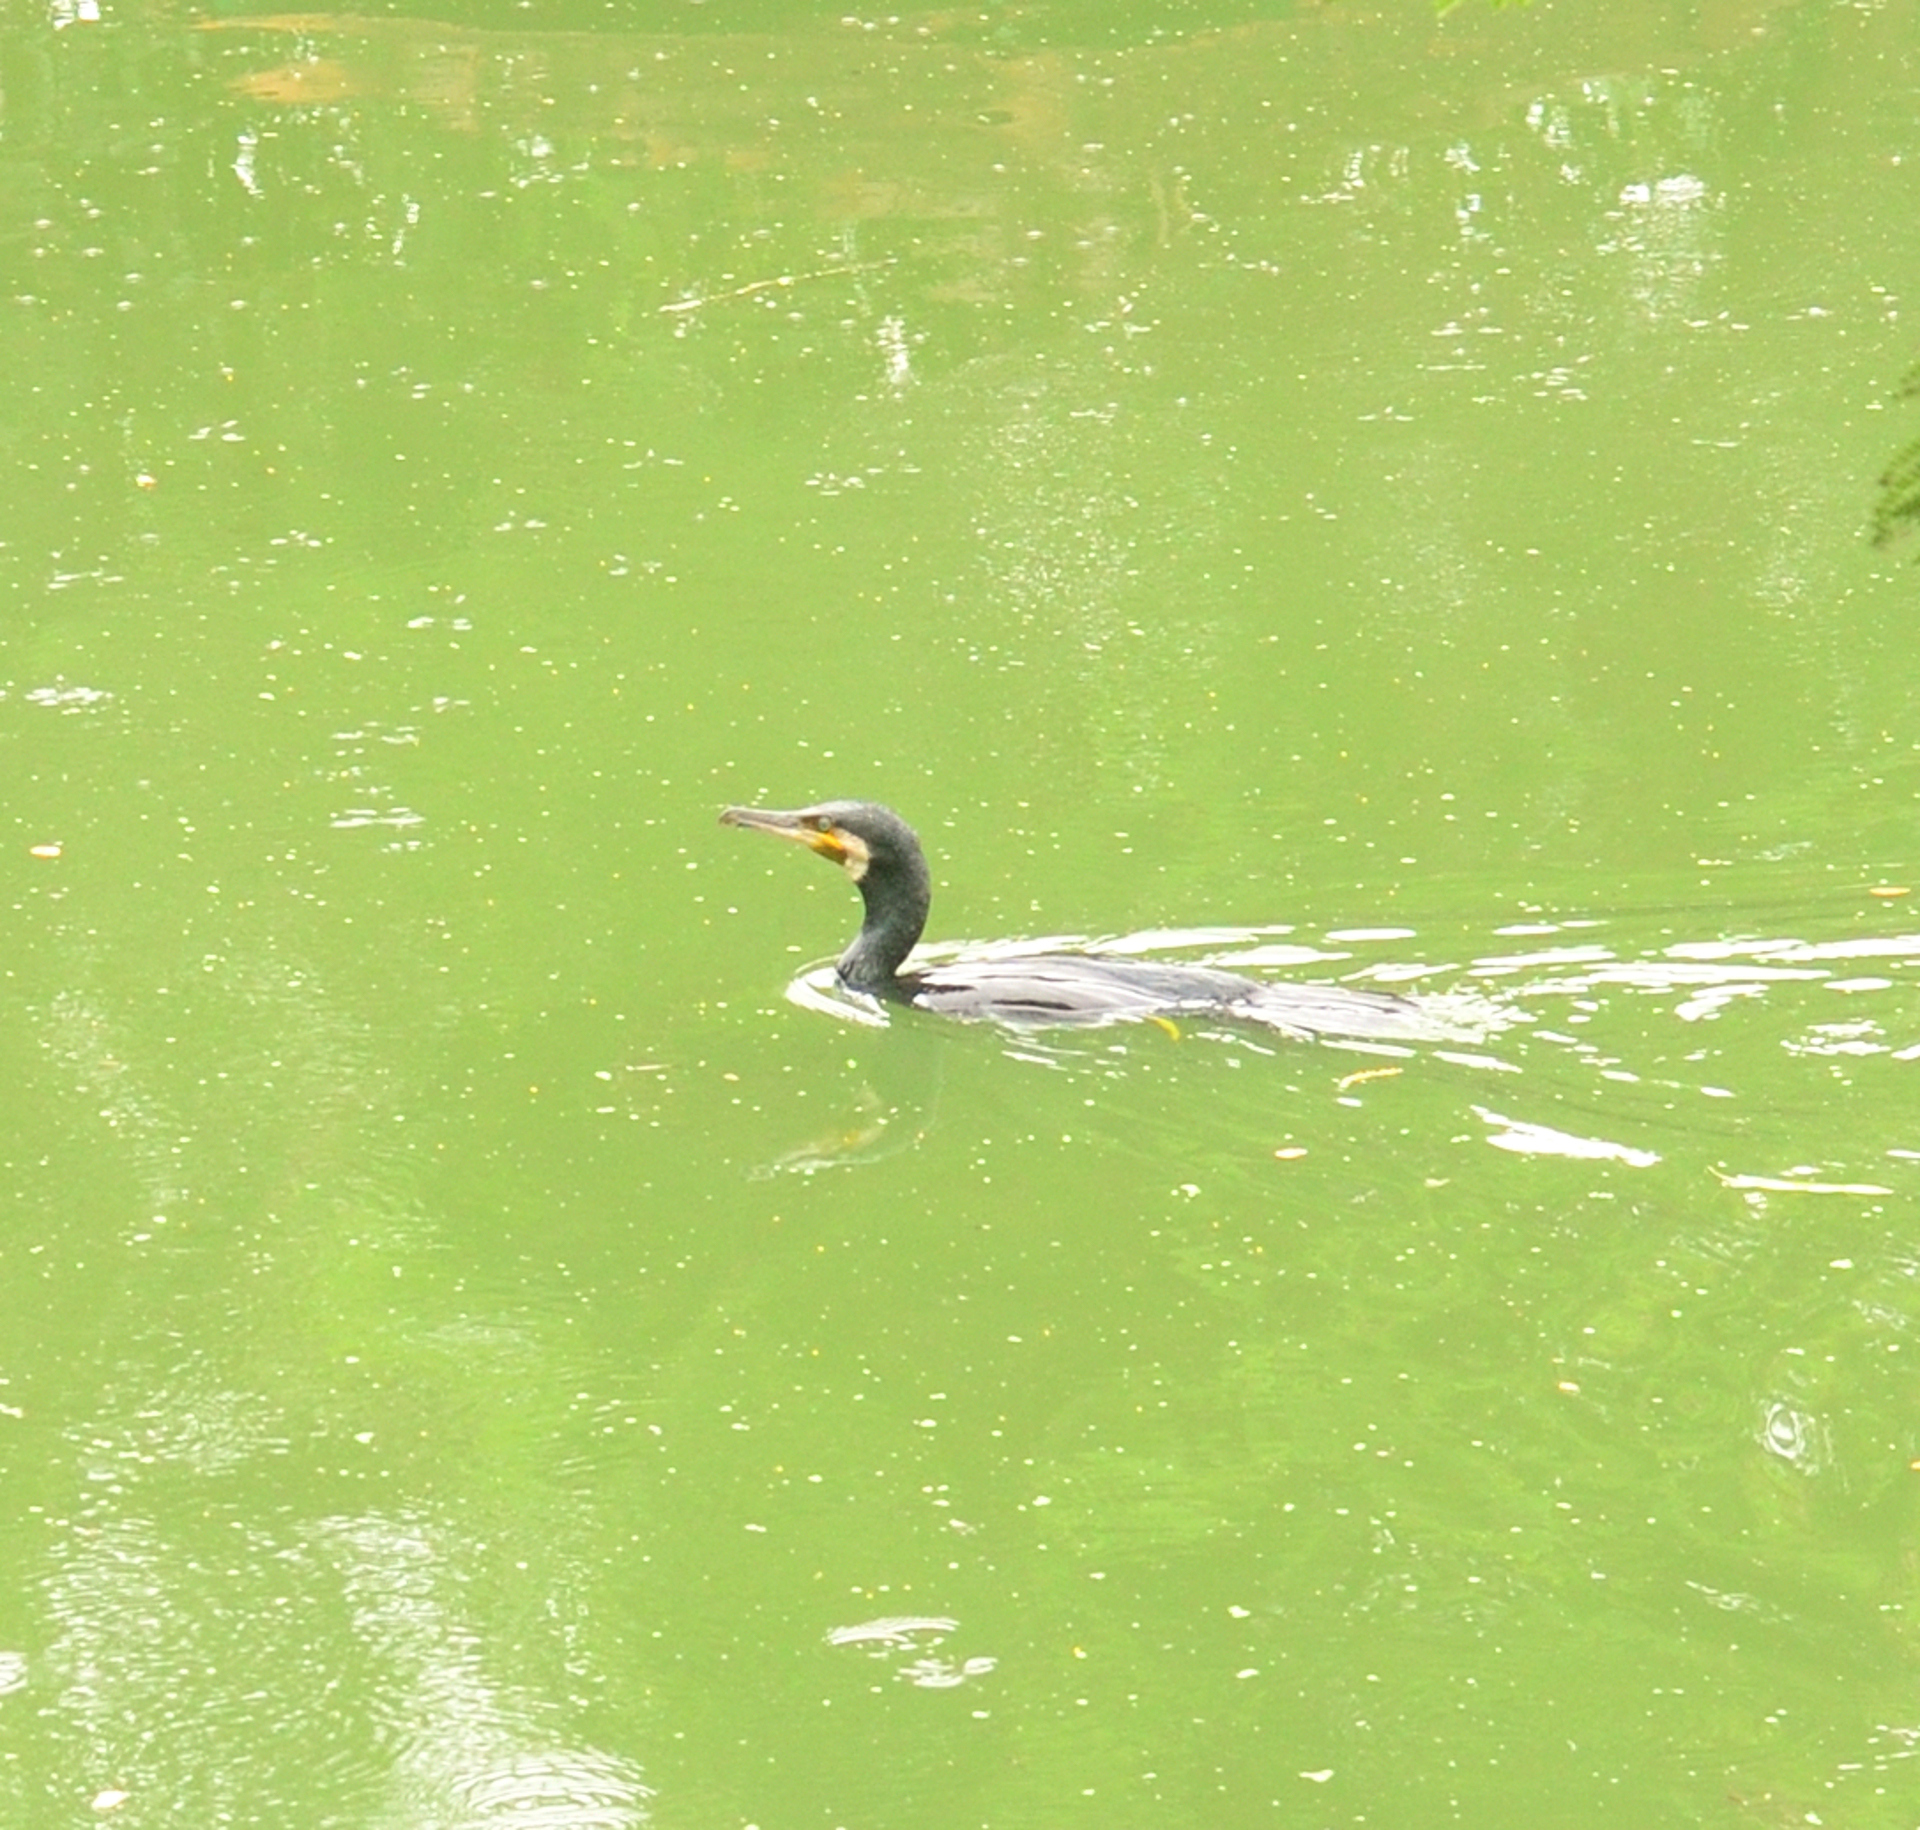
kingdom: Animalia
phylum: Chordata
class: Aves
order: Suliformes
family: Phalacrocoracidae
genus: Phalacrocorax
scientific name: Phalacrocorax carbo
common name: Great cormorant
